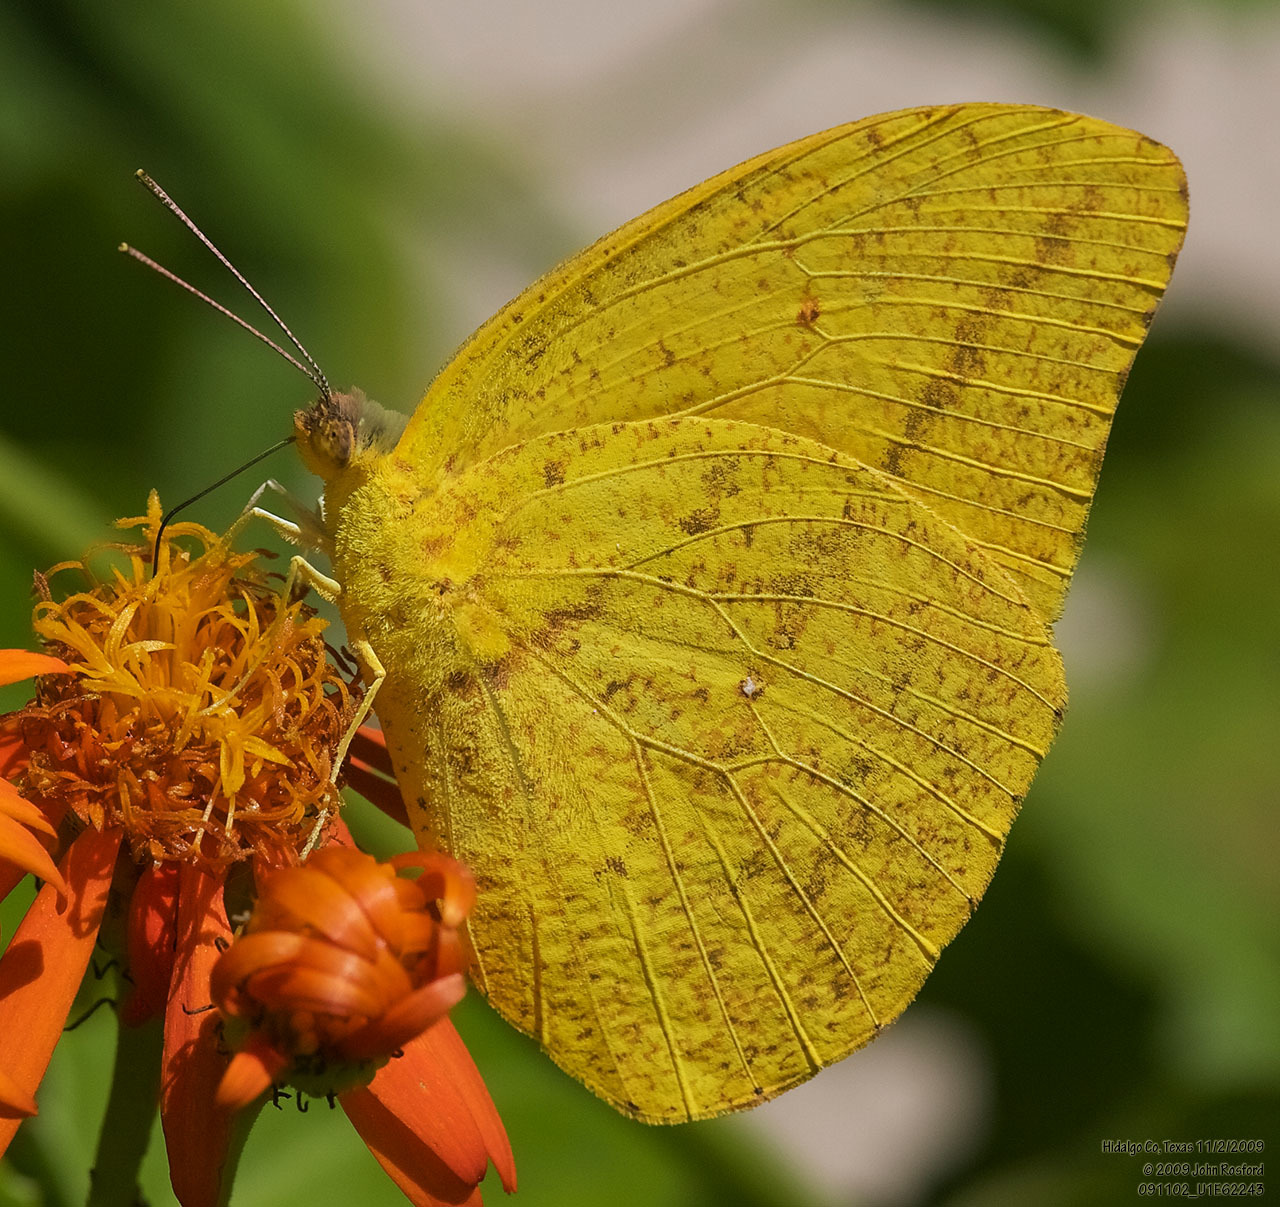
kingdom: Animalia
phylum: Arthropoda
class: Insecta
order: Lepidoptera
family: Pieridae
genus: Phoebis
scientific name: Phoebis agarithe
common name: Large orange sulphur
